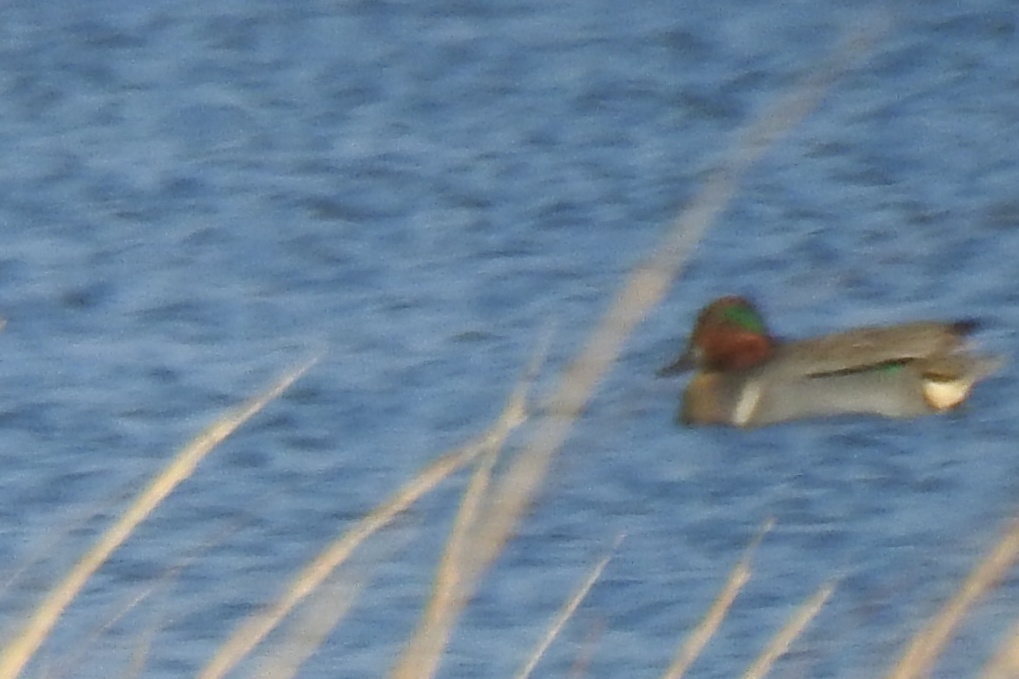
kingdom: Animalia
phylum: Chordata
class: Aves
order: Anseriformes
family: Anatidae
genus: Anas
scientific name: Anas crecca
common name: Eurasian teal
